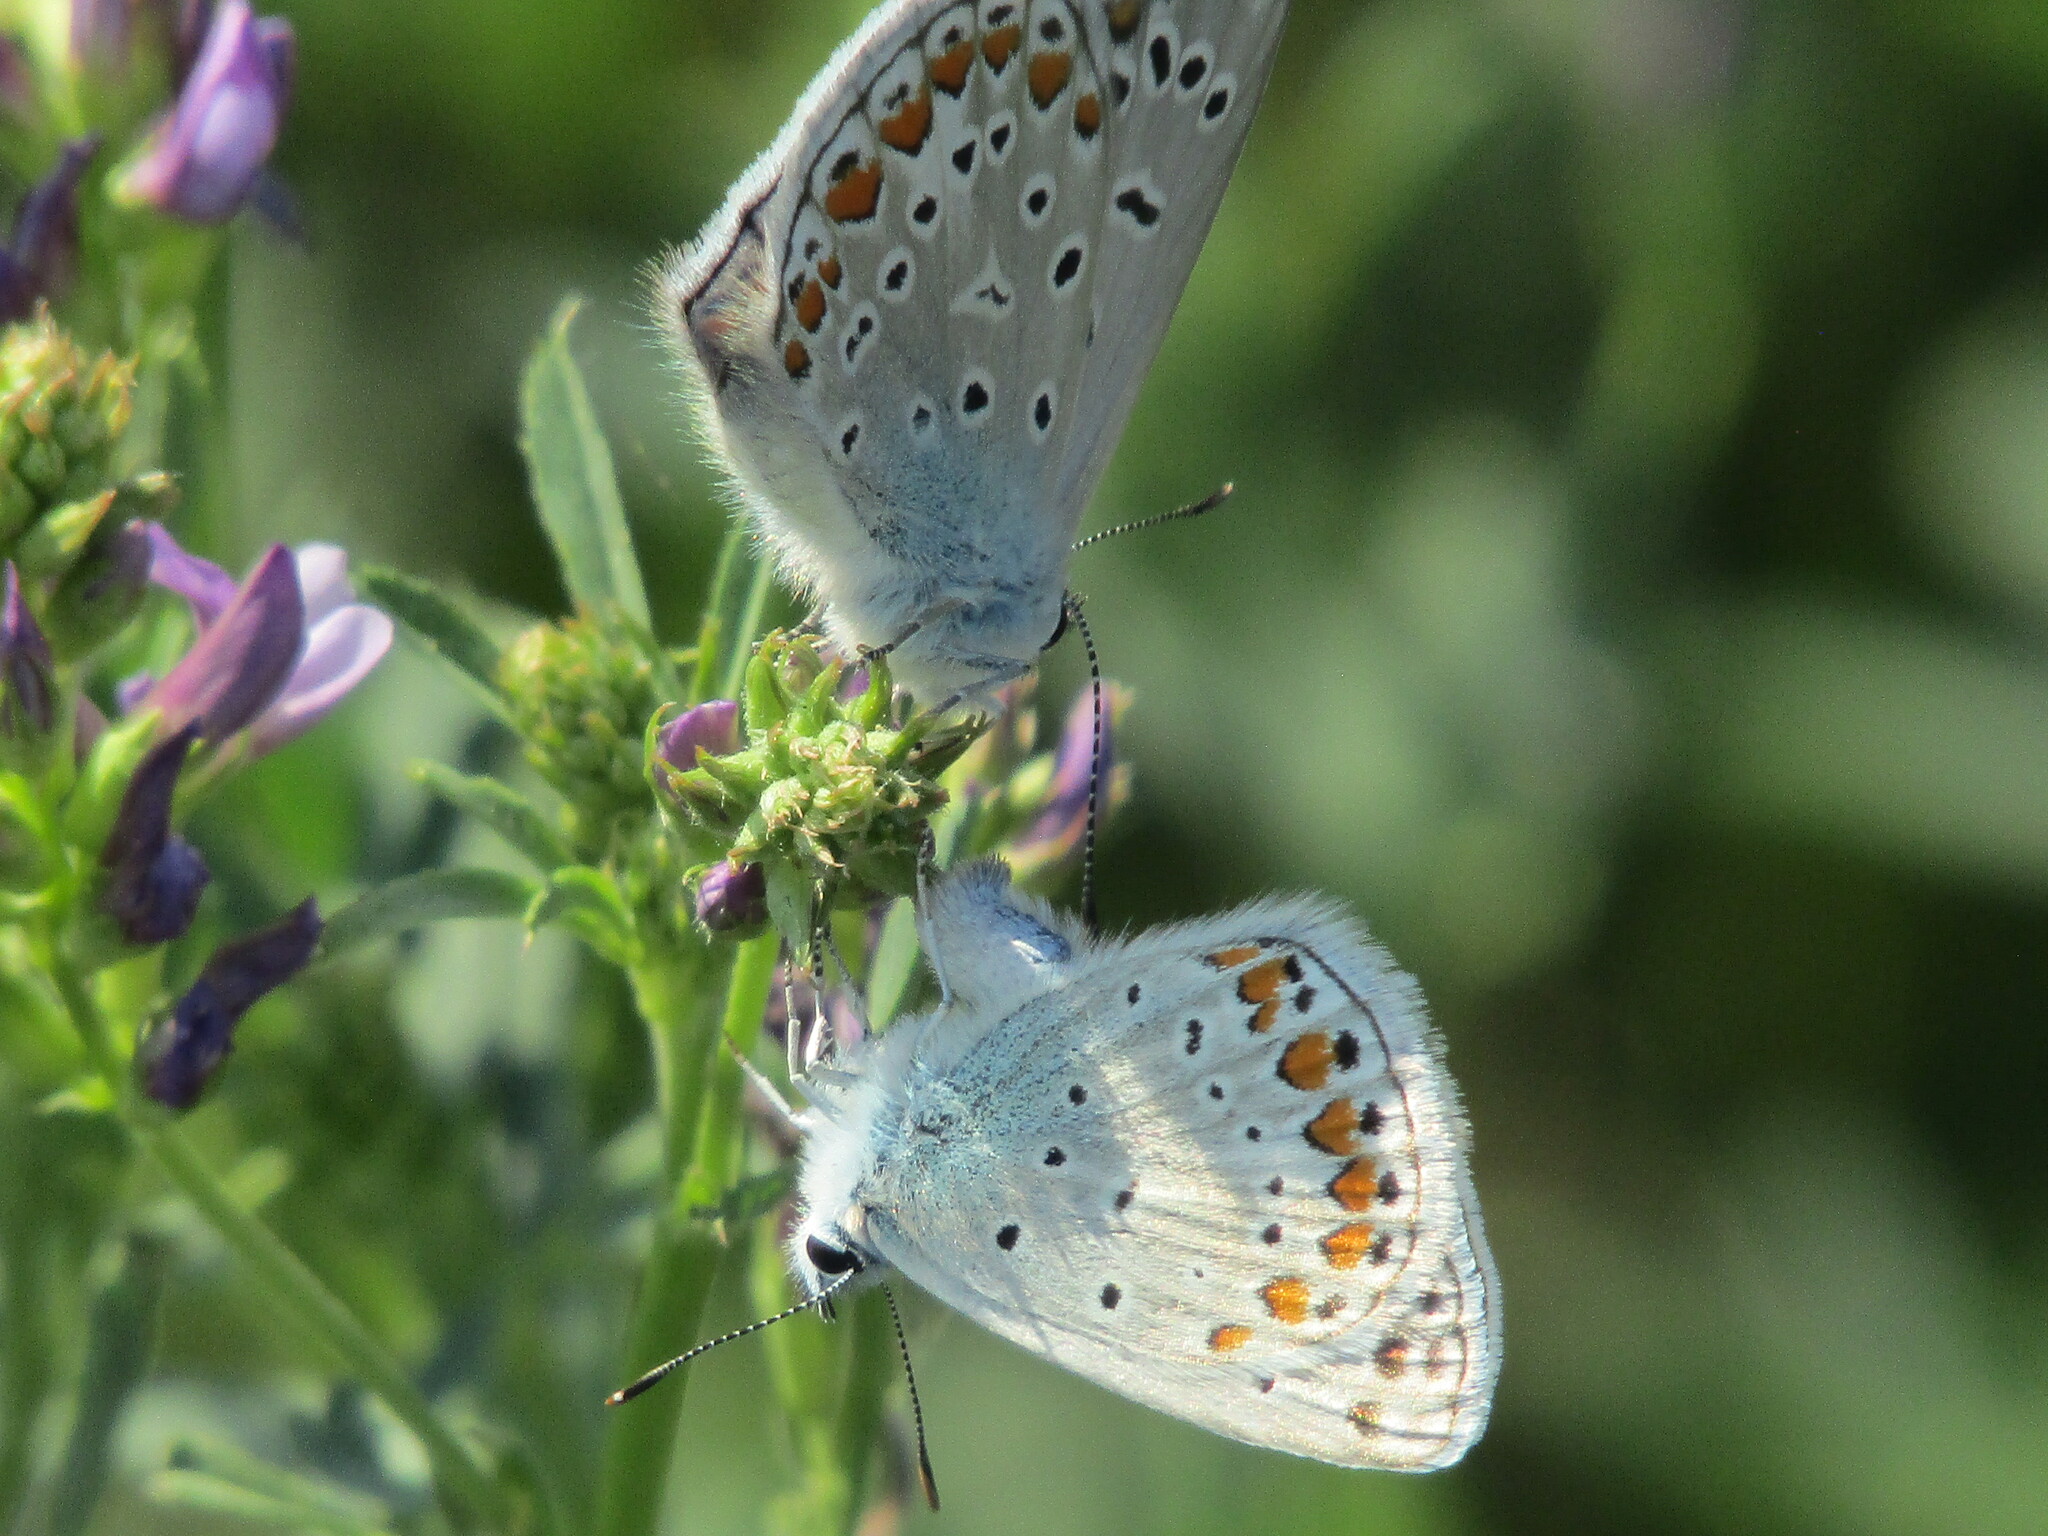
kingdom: Animalia
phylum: Arthropoda
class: Insecta
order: Lepidoptera
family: Lycaenidae
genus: Polyommatus
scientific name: Polyommatus icarus
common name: Common blue
